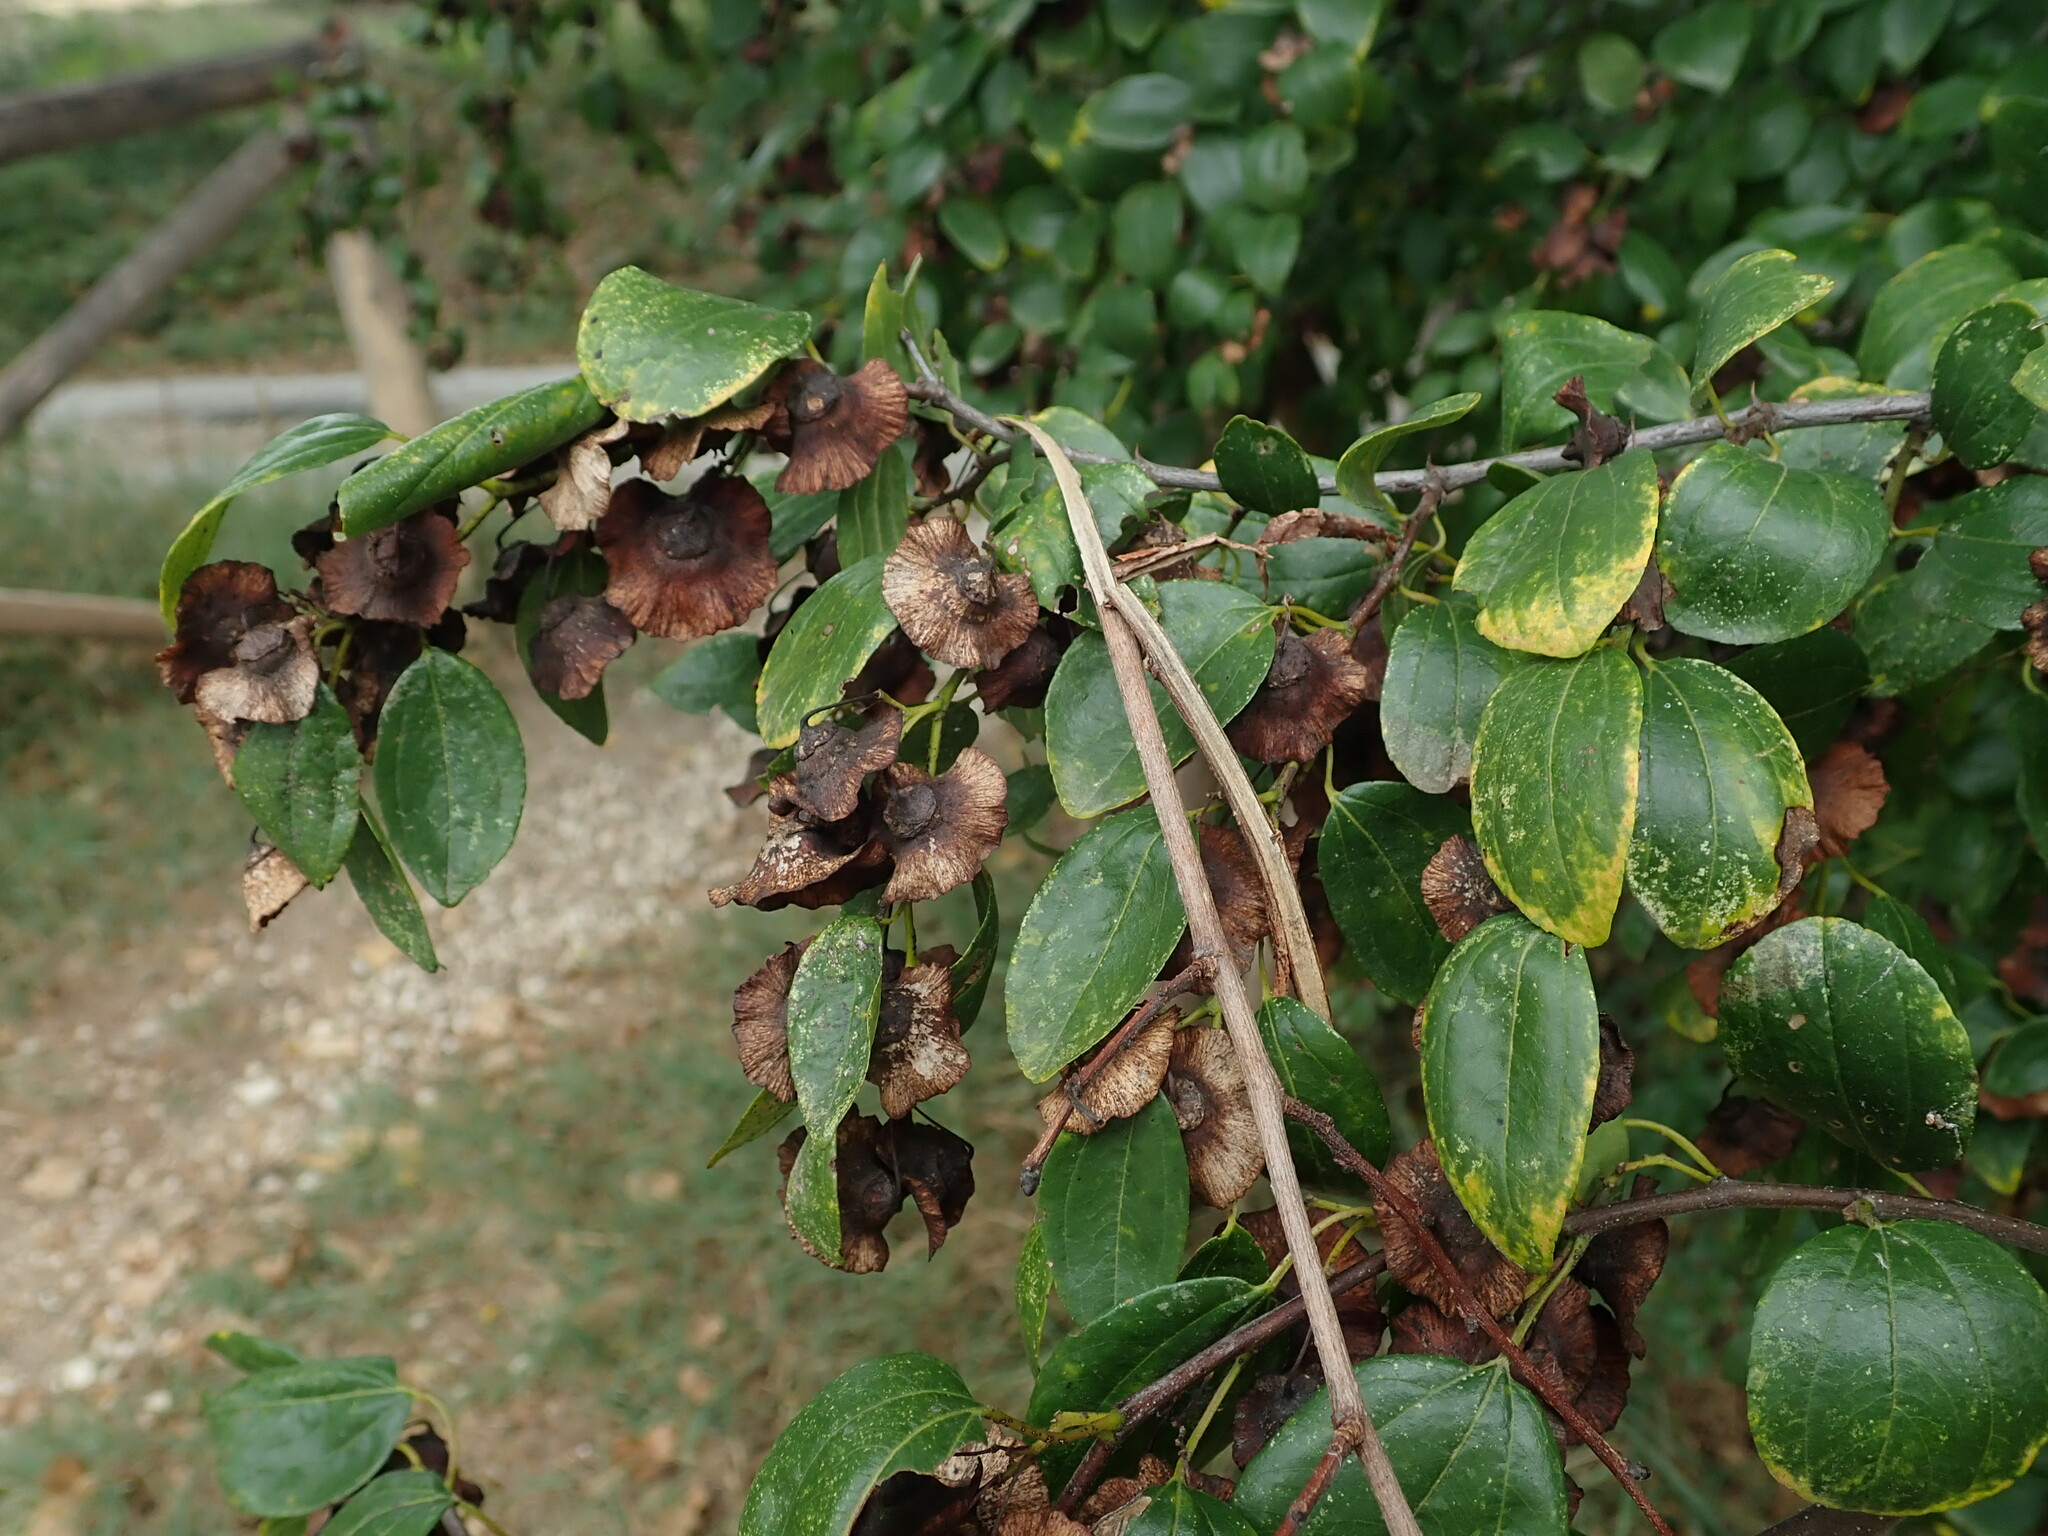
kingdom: Plantae
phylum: Tracheophyta
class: Magnoliopsida
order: Rosales
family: Rhamnaceae
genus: Paliurus
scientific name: Paliurus spina-christi
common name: Jeruselem thorn
